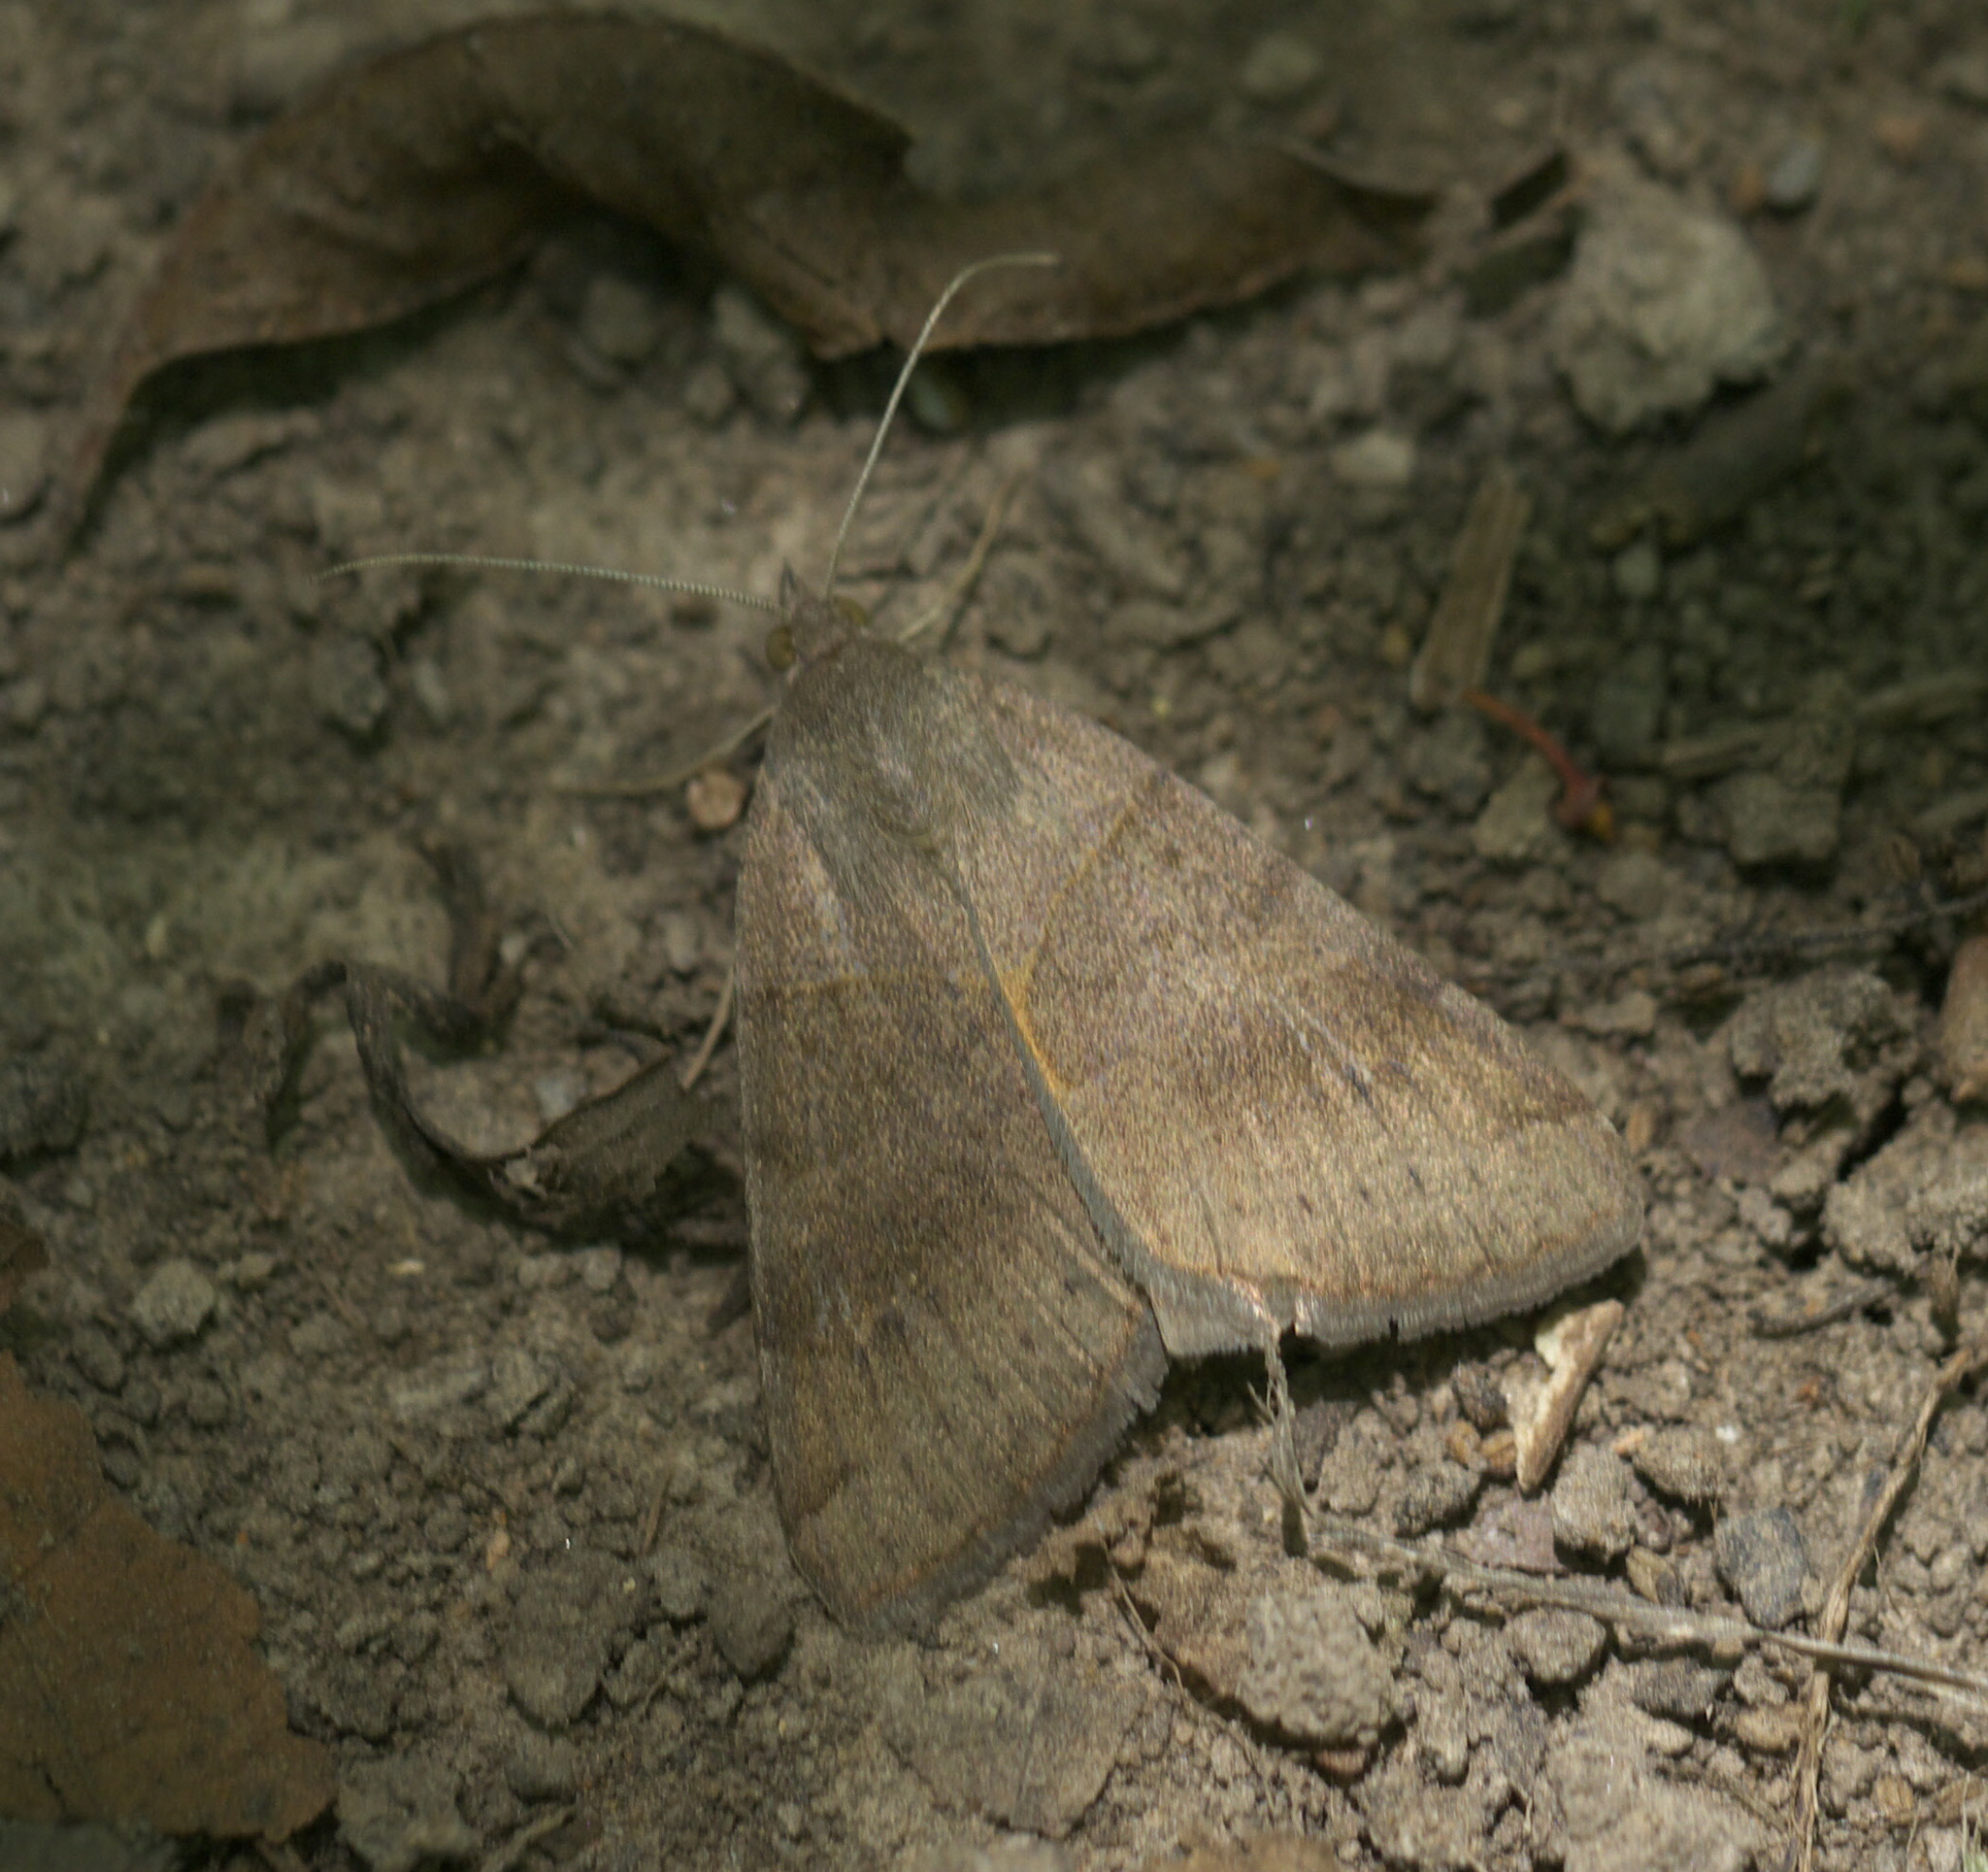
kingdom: Animalia
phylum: Arthropoda
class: Insecta
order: Lepidoptera
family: Erebidae
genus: Caenurgina
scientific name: Caenurgina erechtea
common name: Forage looper moth
